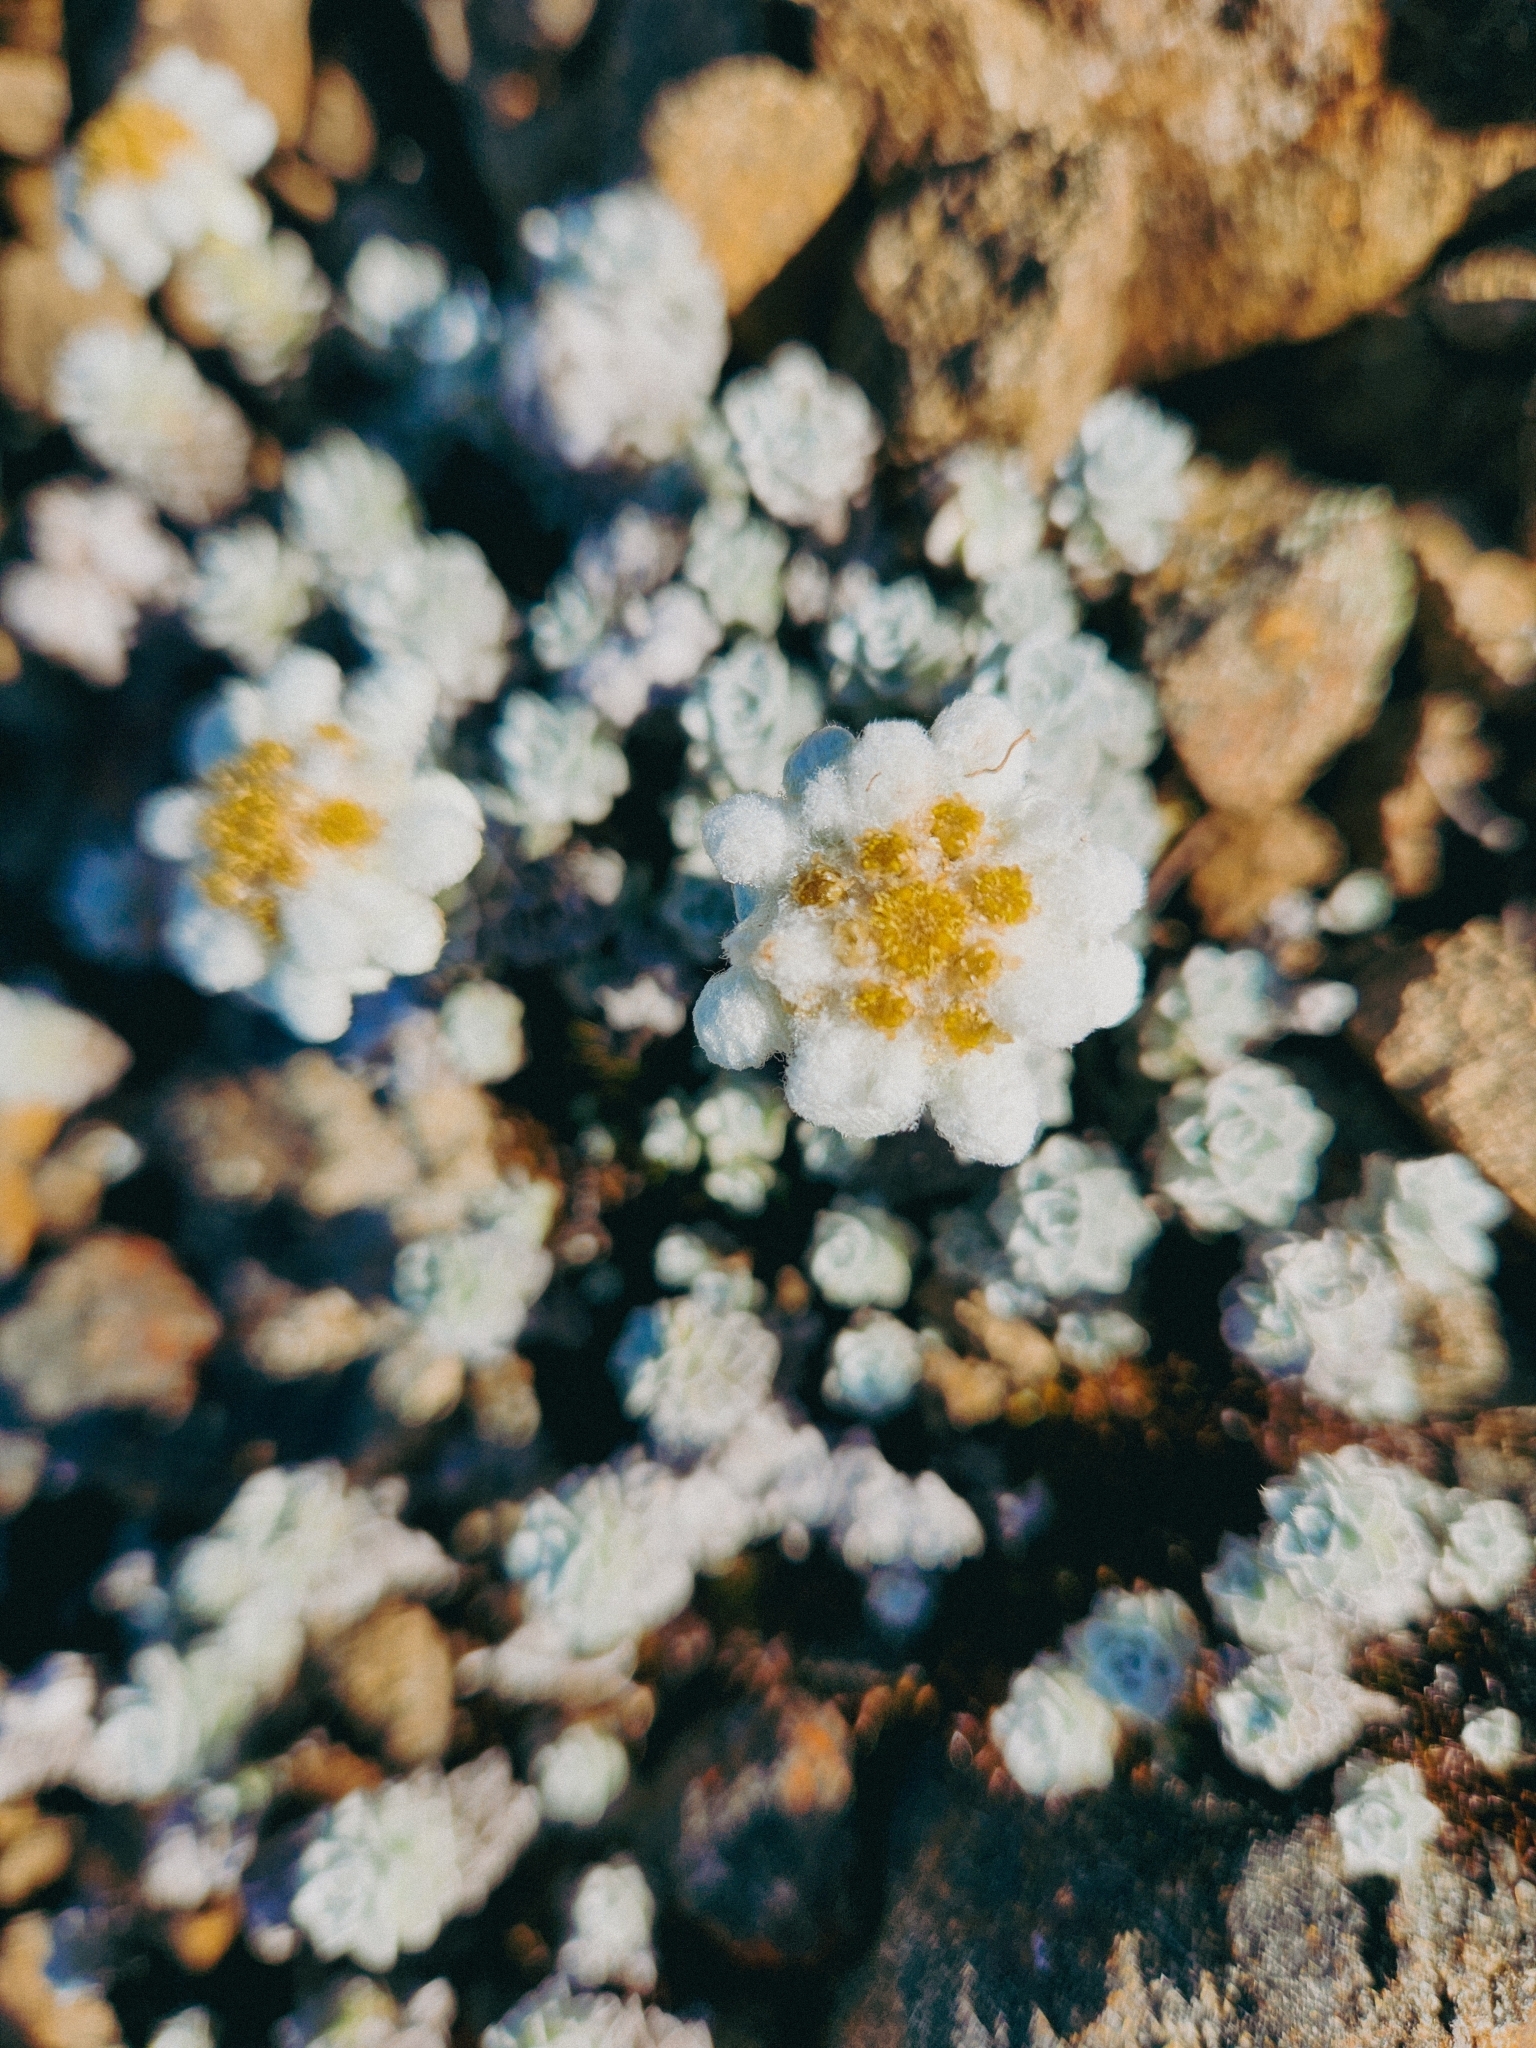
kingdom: Plantae
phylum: Tracheophyta
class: Magnoliopsida
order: Asterales
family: Asteraceae
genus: Leucogenes
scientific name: Leucogenes grandiceps
